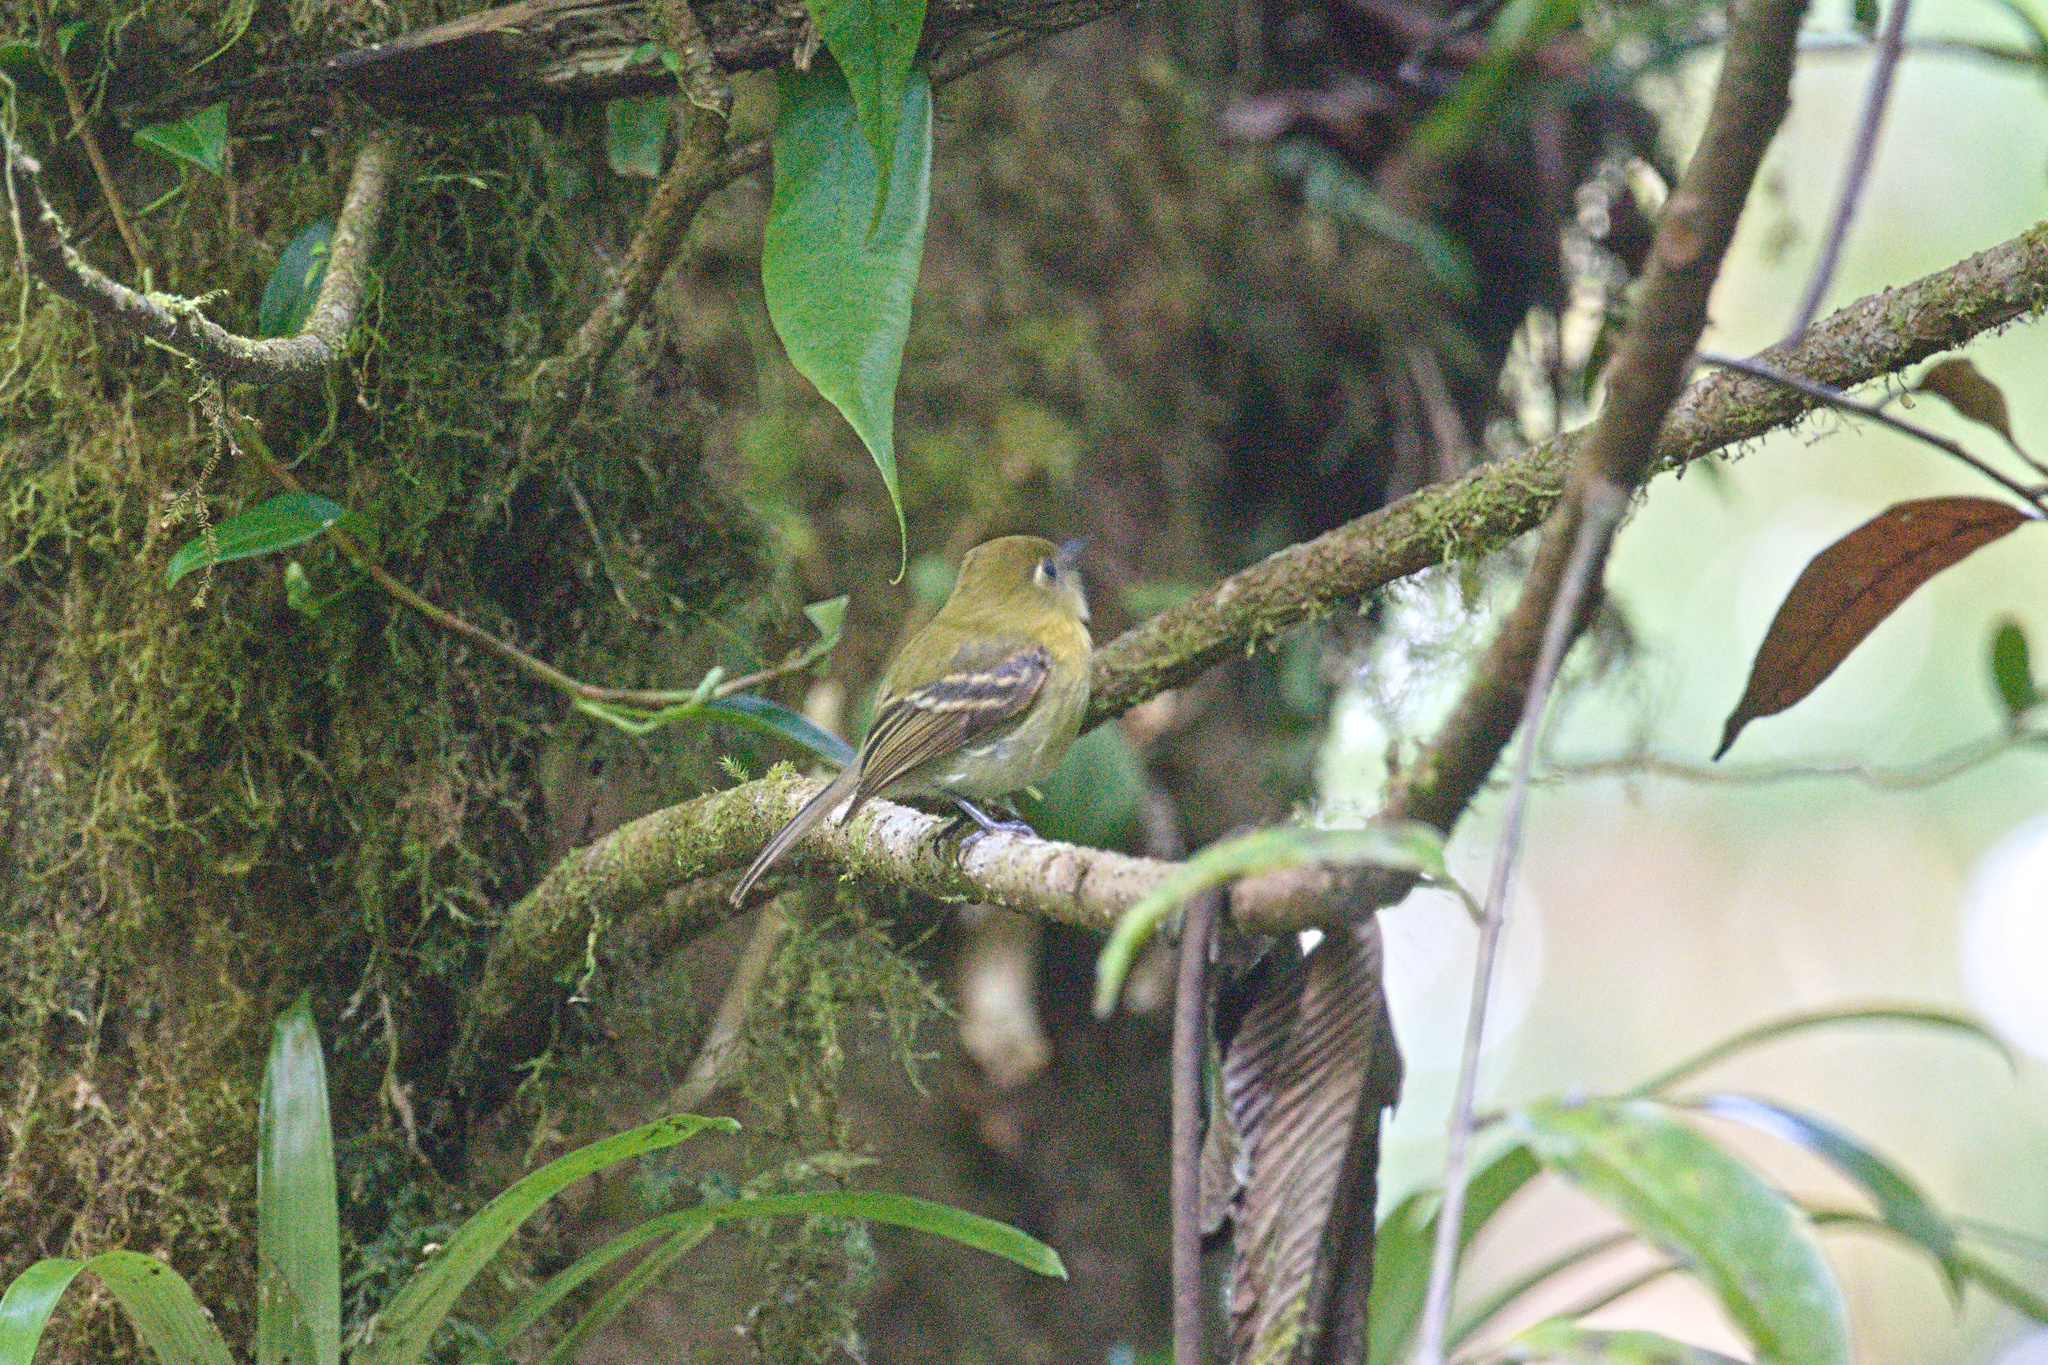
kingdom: Animalia
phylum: Chordata
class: Aves
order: Passeriformes
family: Tyrannidae
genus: Empidonax
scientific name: Empidonax flavescens
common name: Yellowish flycatcher
